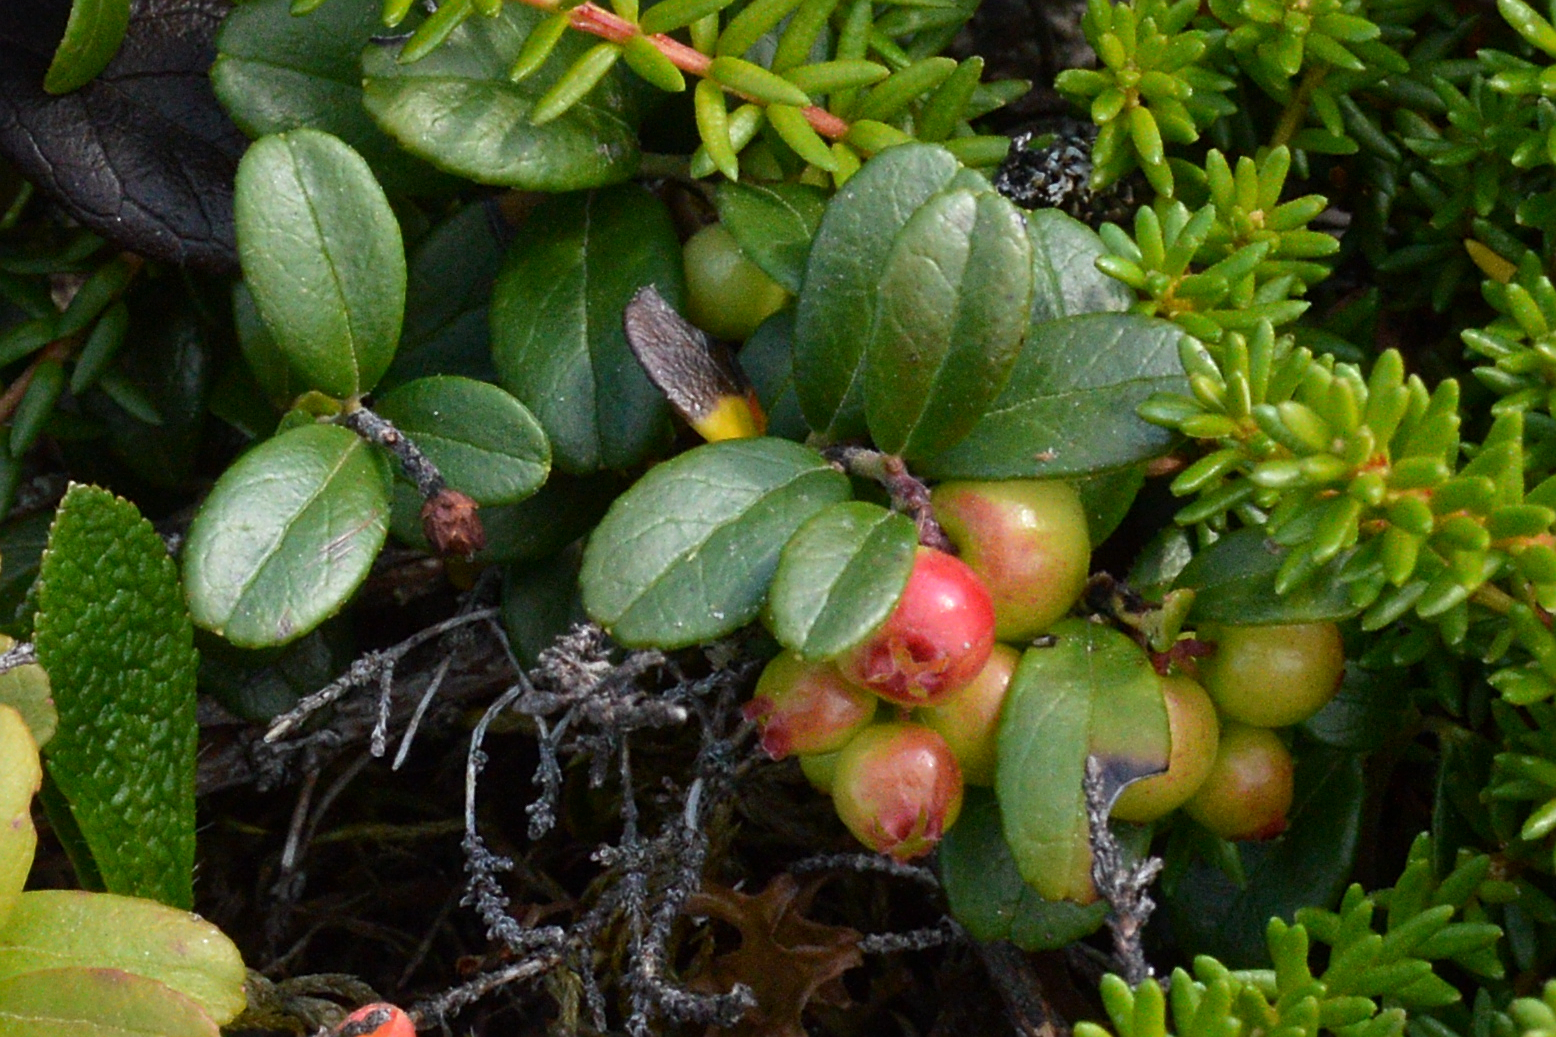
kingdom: Plantae
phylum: Tracheophyta
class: Magnoliopsida
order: Ericales
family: Ericaceae
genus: Vaccinium
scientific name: Vaccinium vitis-idaea
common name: Cowberry
